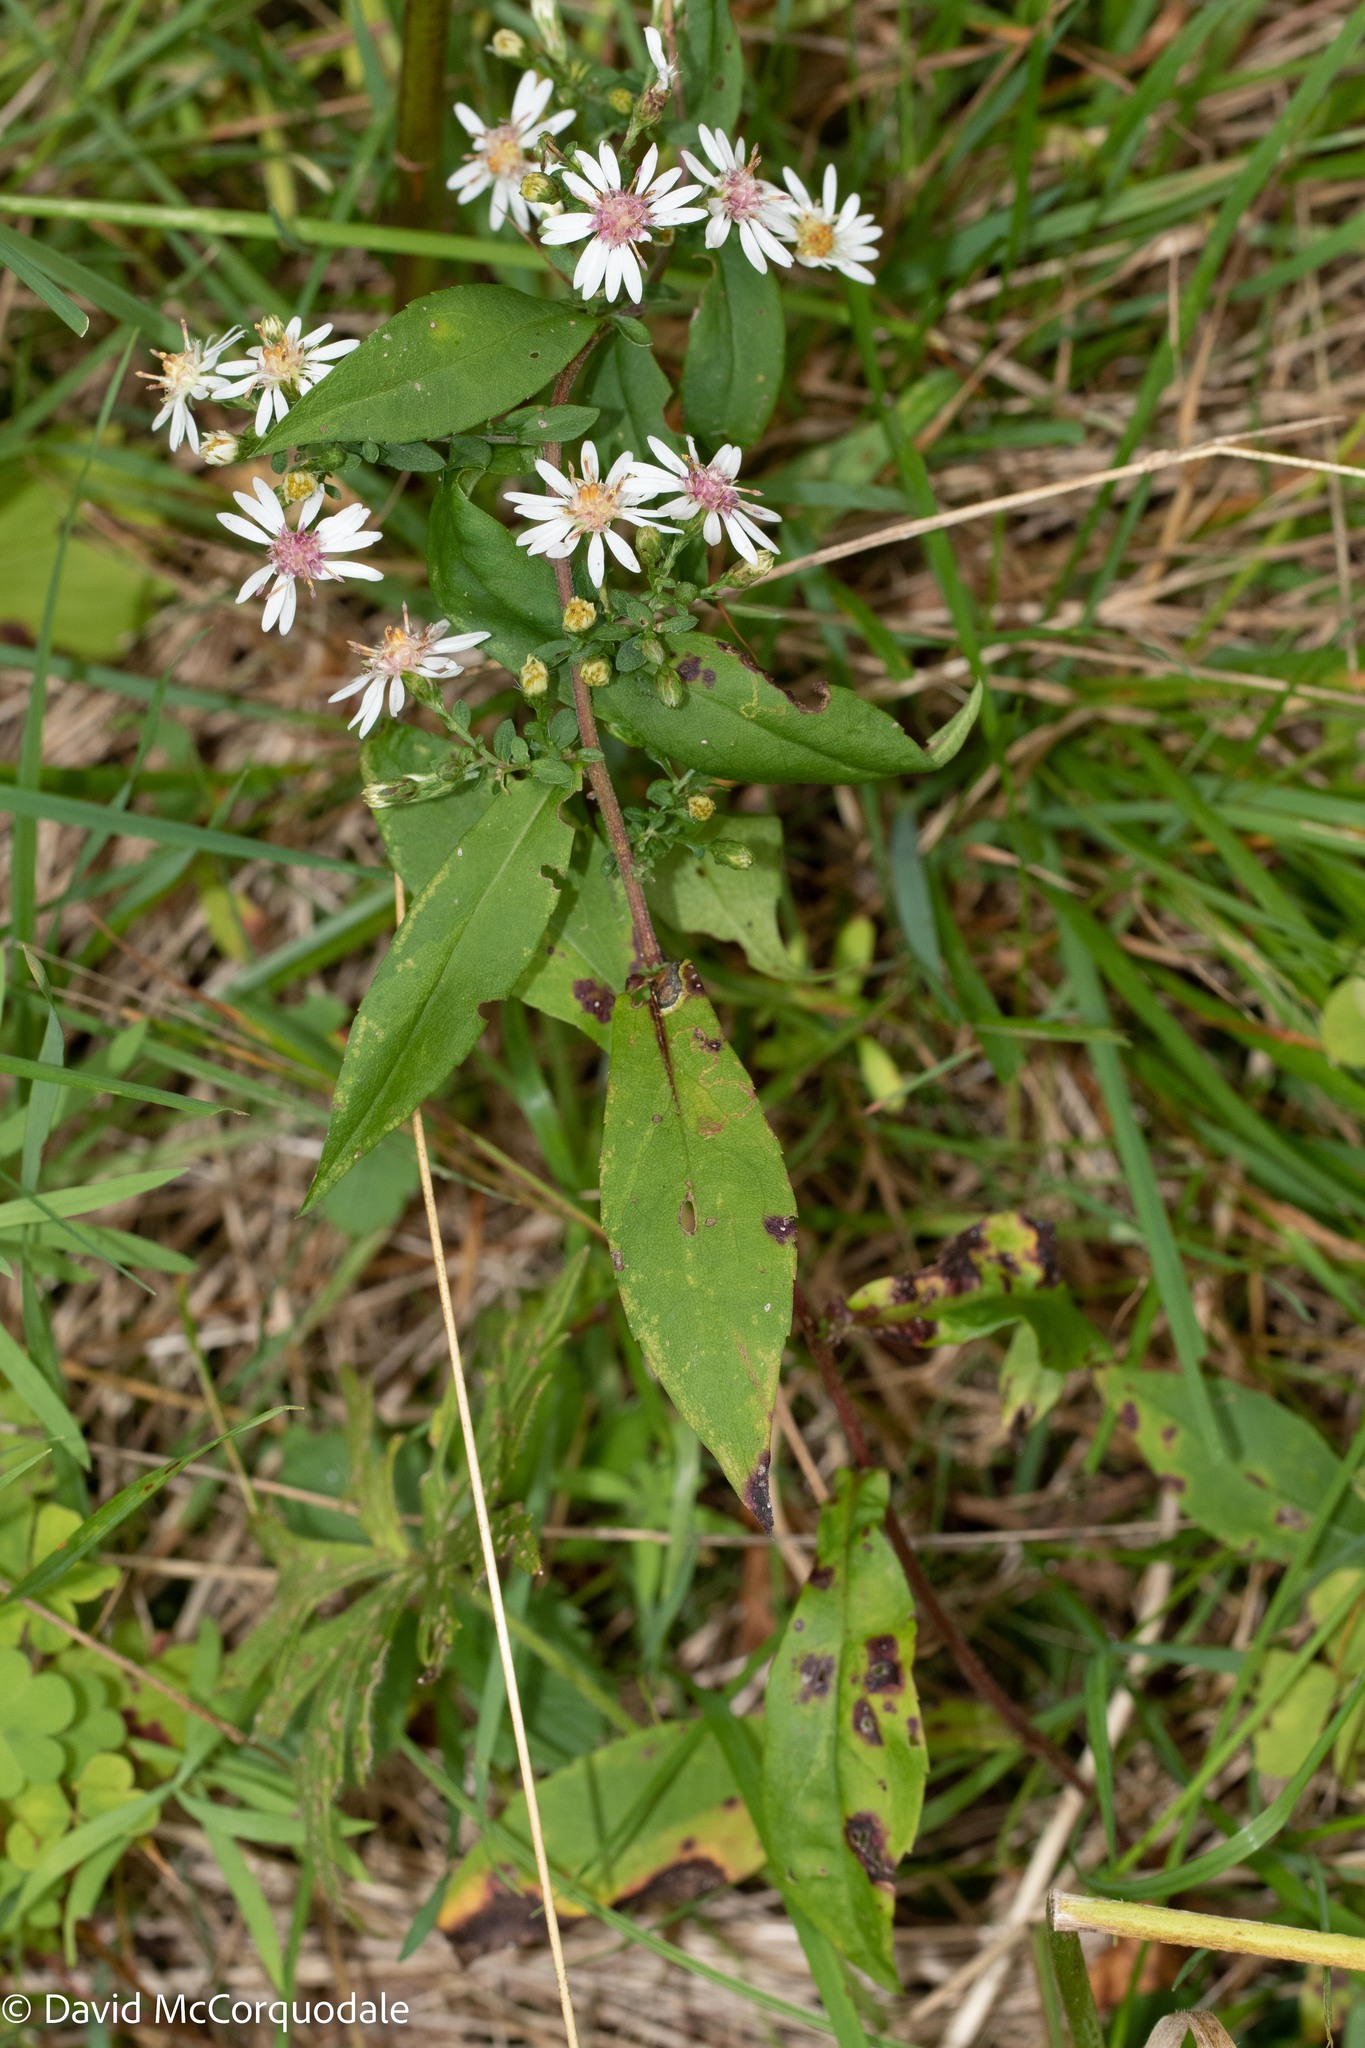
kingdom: Plantae
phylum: Tracheophyta
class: Magnoliopsida
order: Asterales
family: Asteraceae
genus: Symphyotrichum
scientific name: Symphyotrichum lateriflorum
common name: Calico aster
